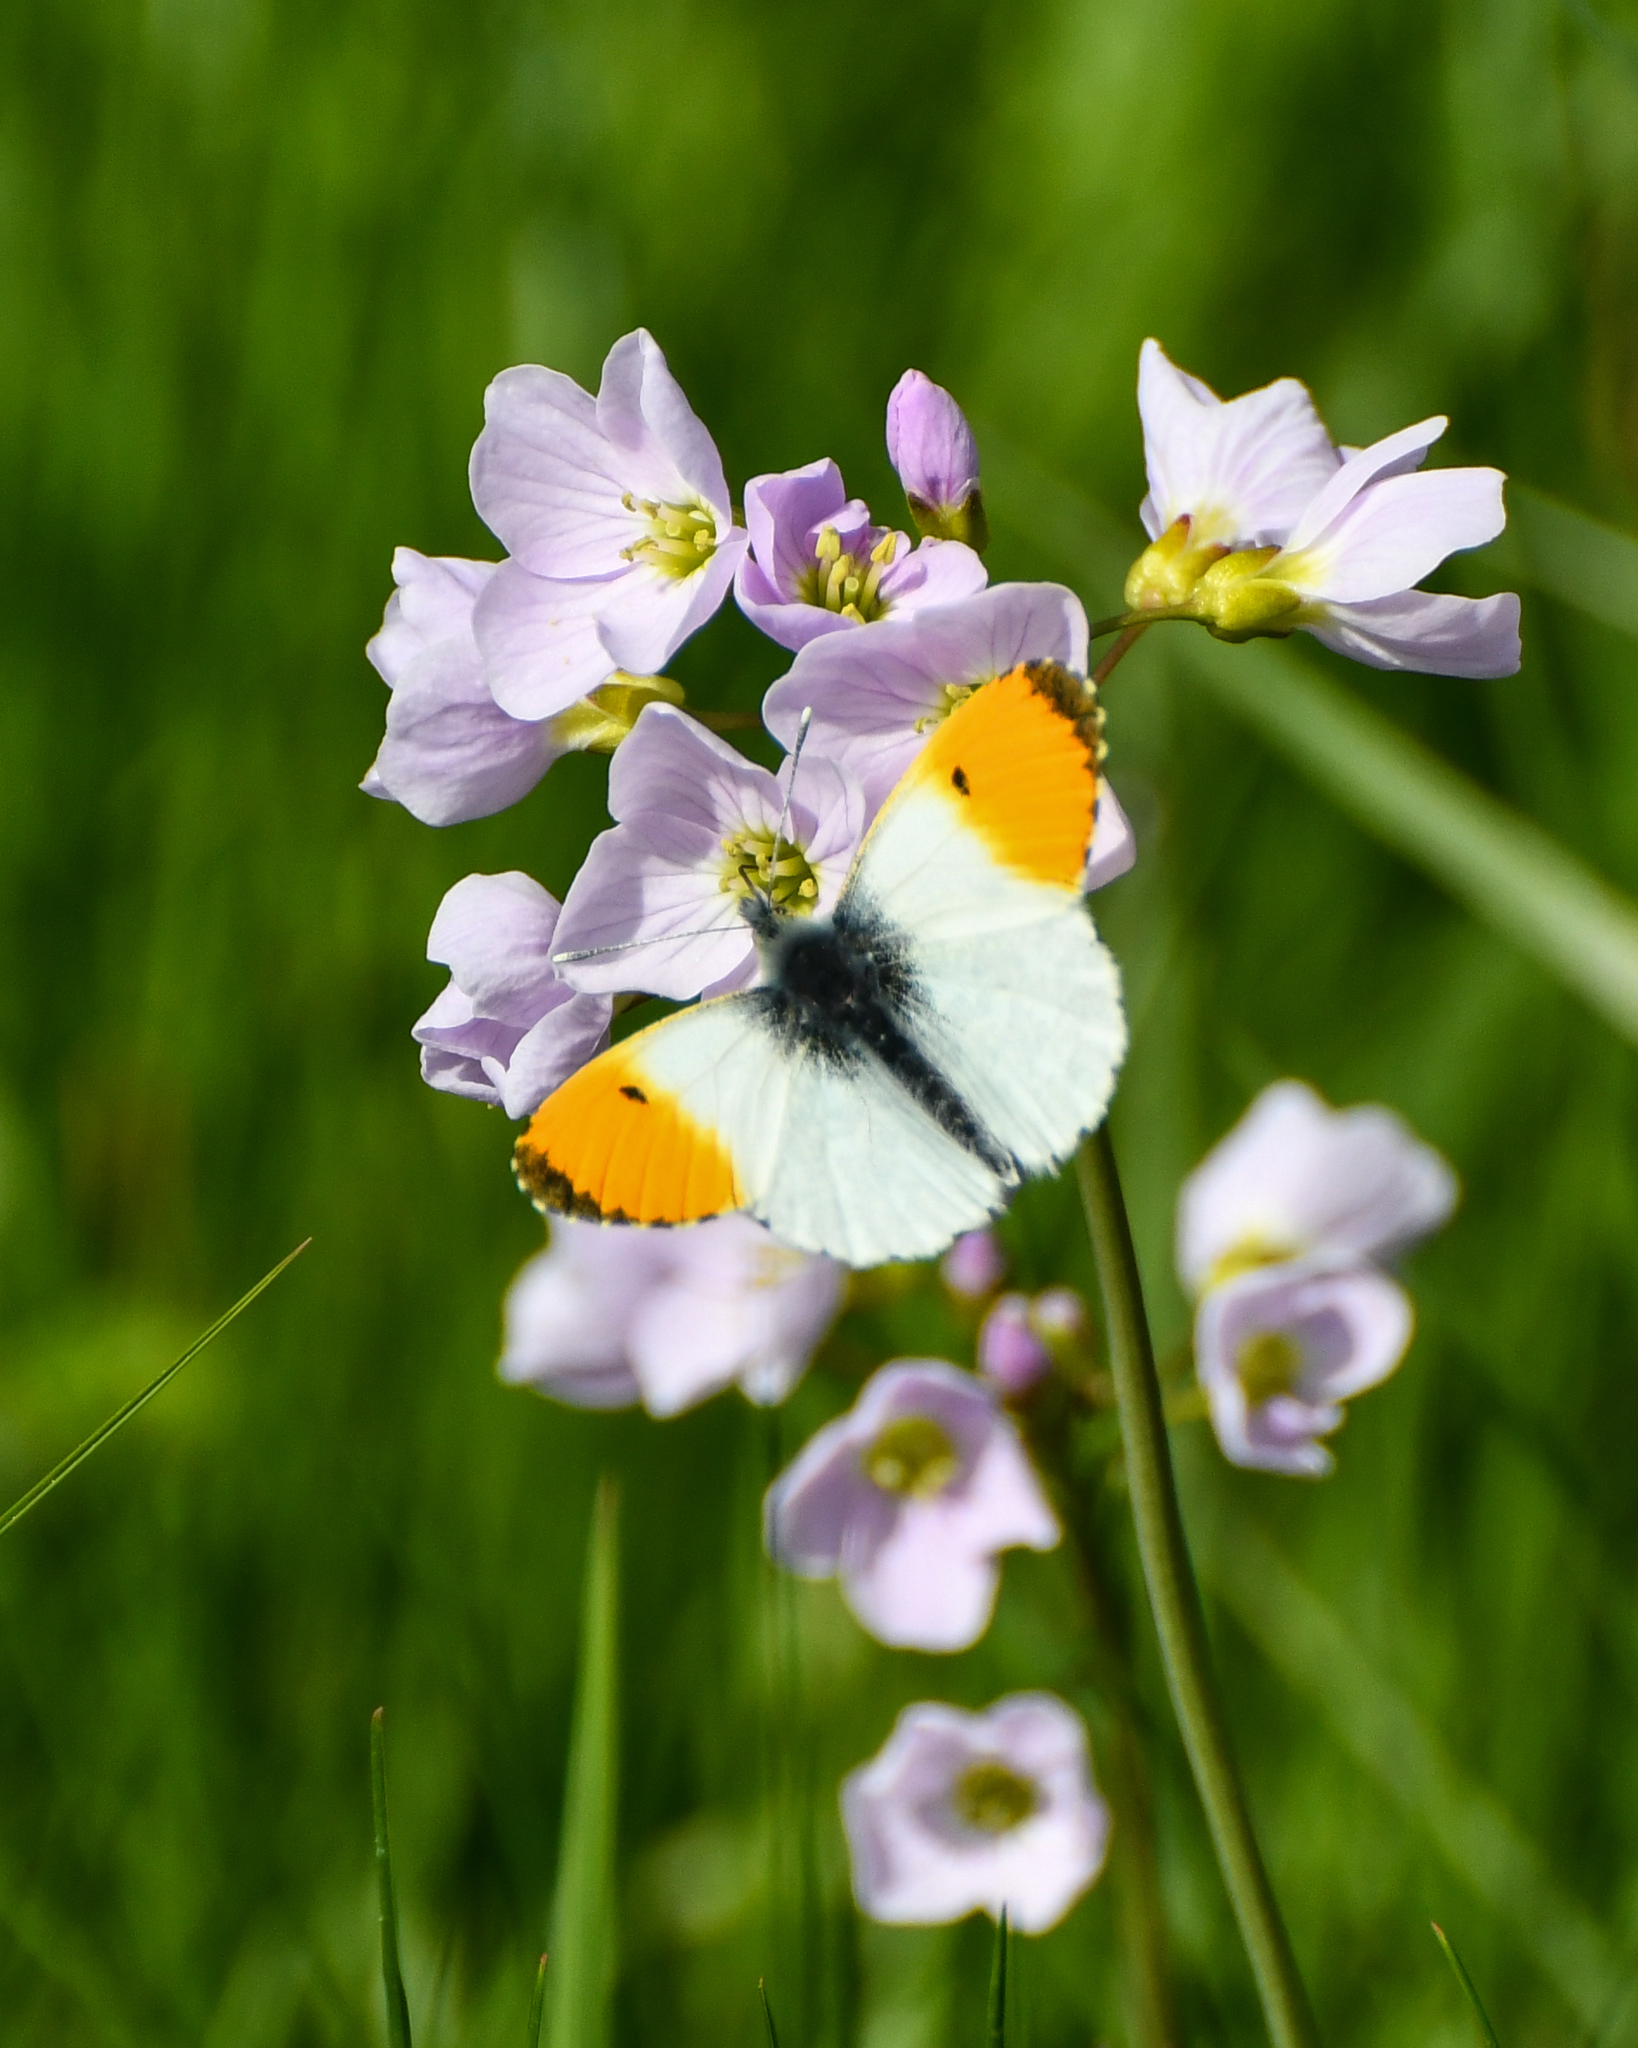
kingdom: Animalia
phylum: Arthropoda
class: Insecta
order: Lepidoptera
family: Pieridae
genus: Anthocharis
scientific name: Anthocharis cardamines
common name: Orange-tip
